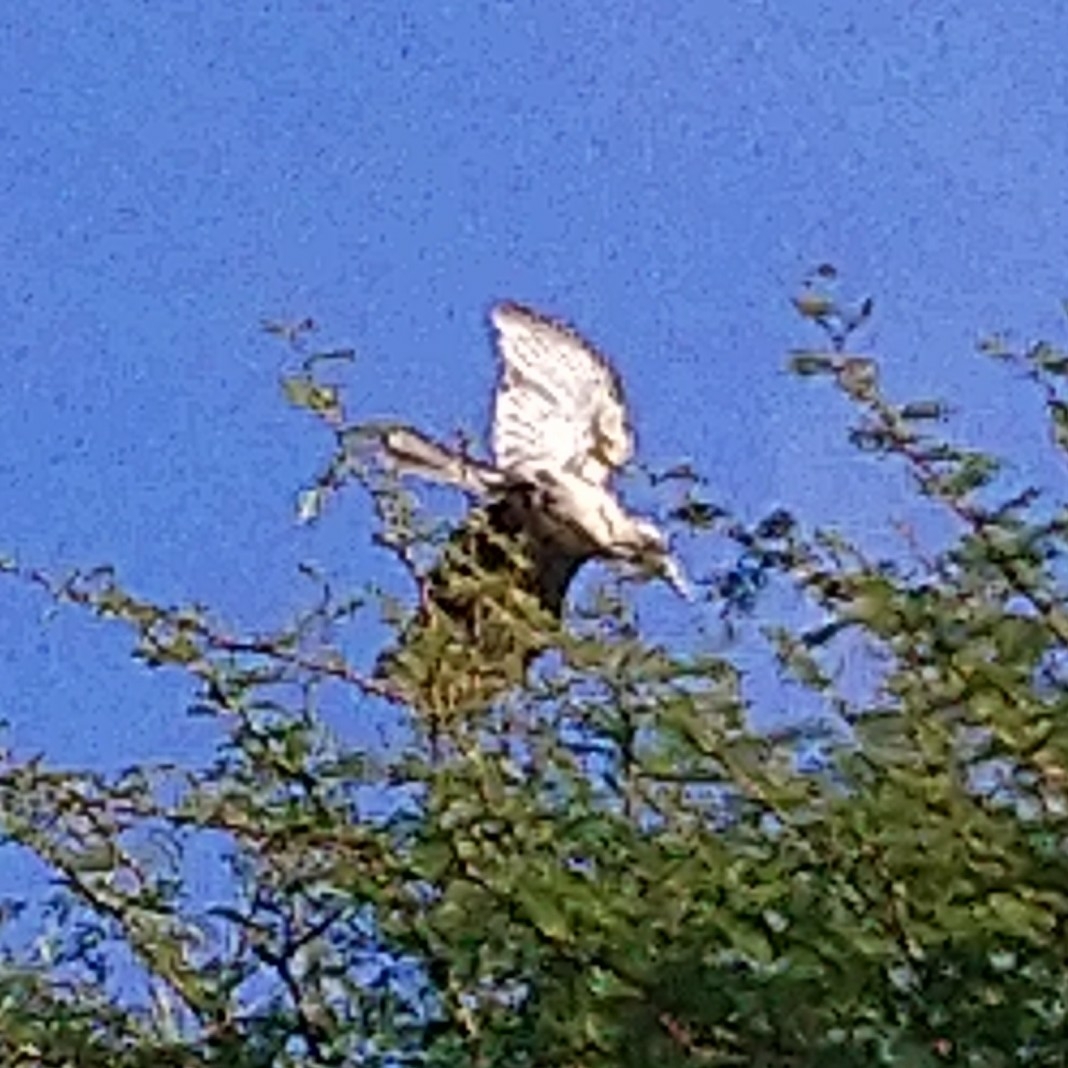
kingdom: Animalia
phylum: Chordata
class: Aves
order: Bucerotiformes
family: Bucerotidae
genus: Lophoceros
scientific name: Lophoceros nasutus
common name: African grey hornbill
